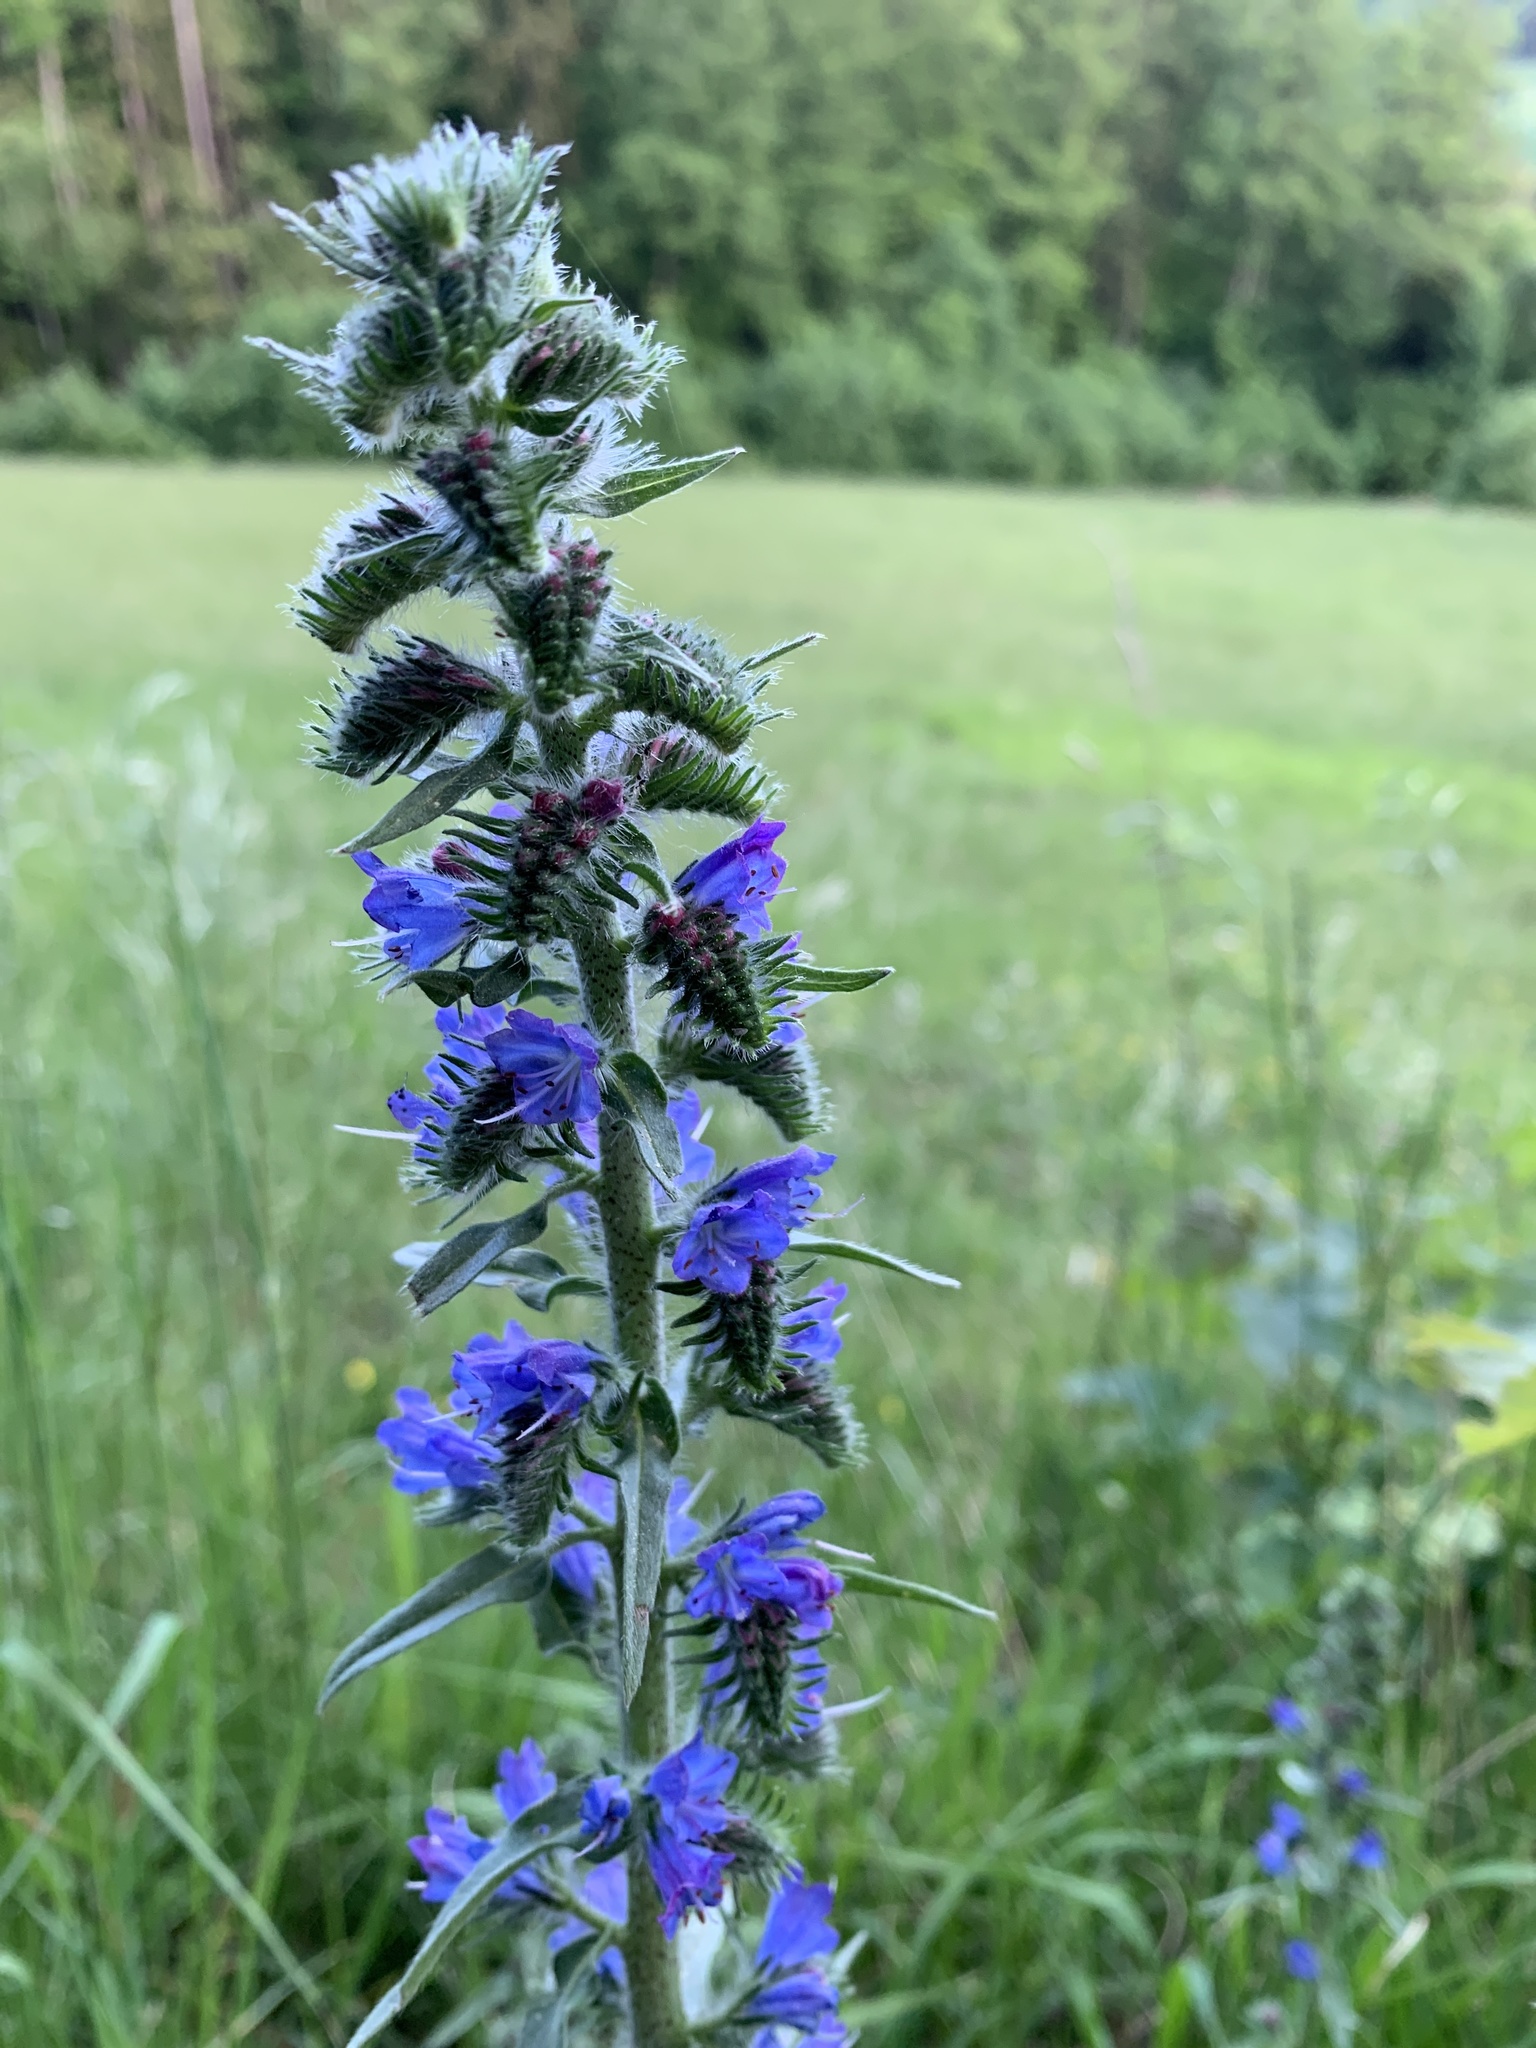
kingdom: Plantae
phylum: Tracheophyta
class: Magnoliopsida
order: Boraginales
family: Boraginaceae
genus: Echium
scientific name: Echium vulgare
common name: Common viper's bugloss
